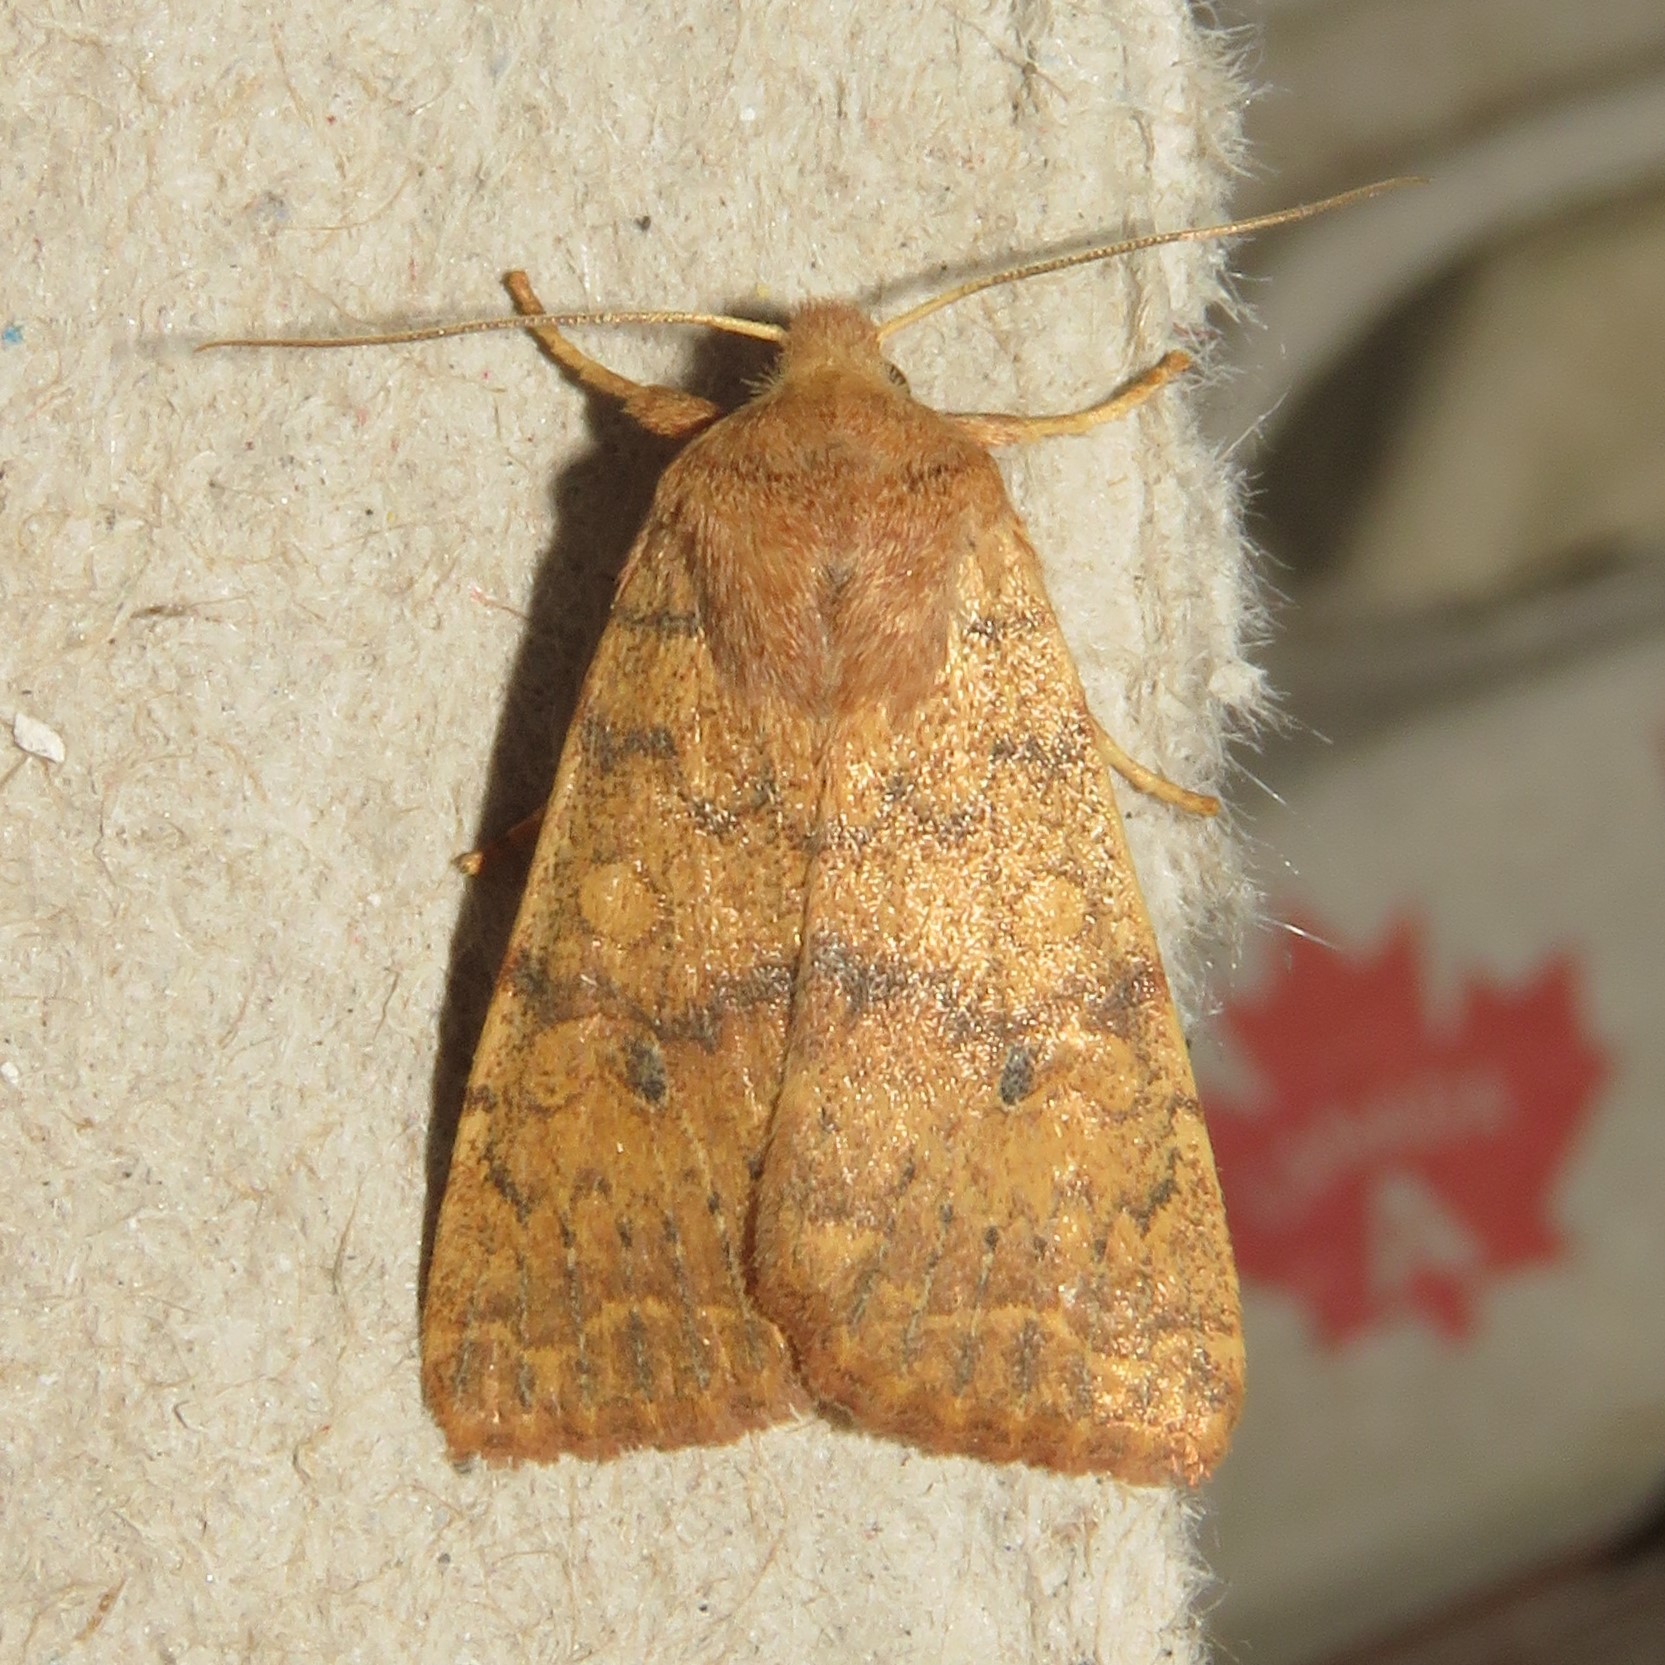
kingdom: Animalia
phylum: Arthropoda
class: Insecta
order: Lepidoptera
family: Noctuidae
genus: Agrochola
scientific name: Agrochola bicolorago
